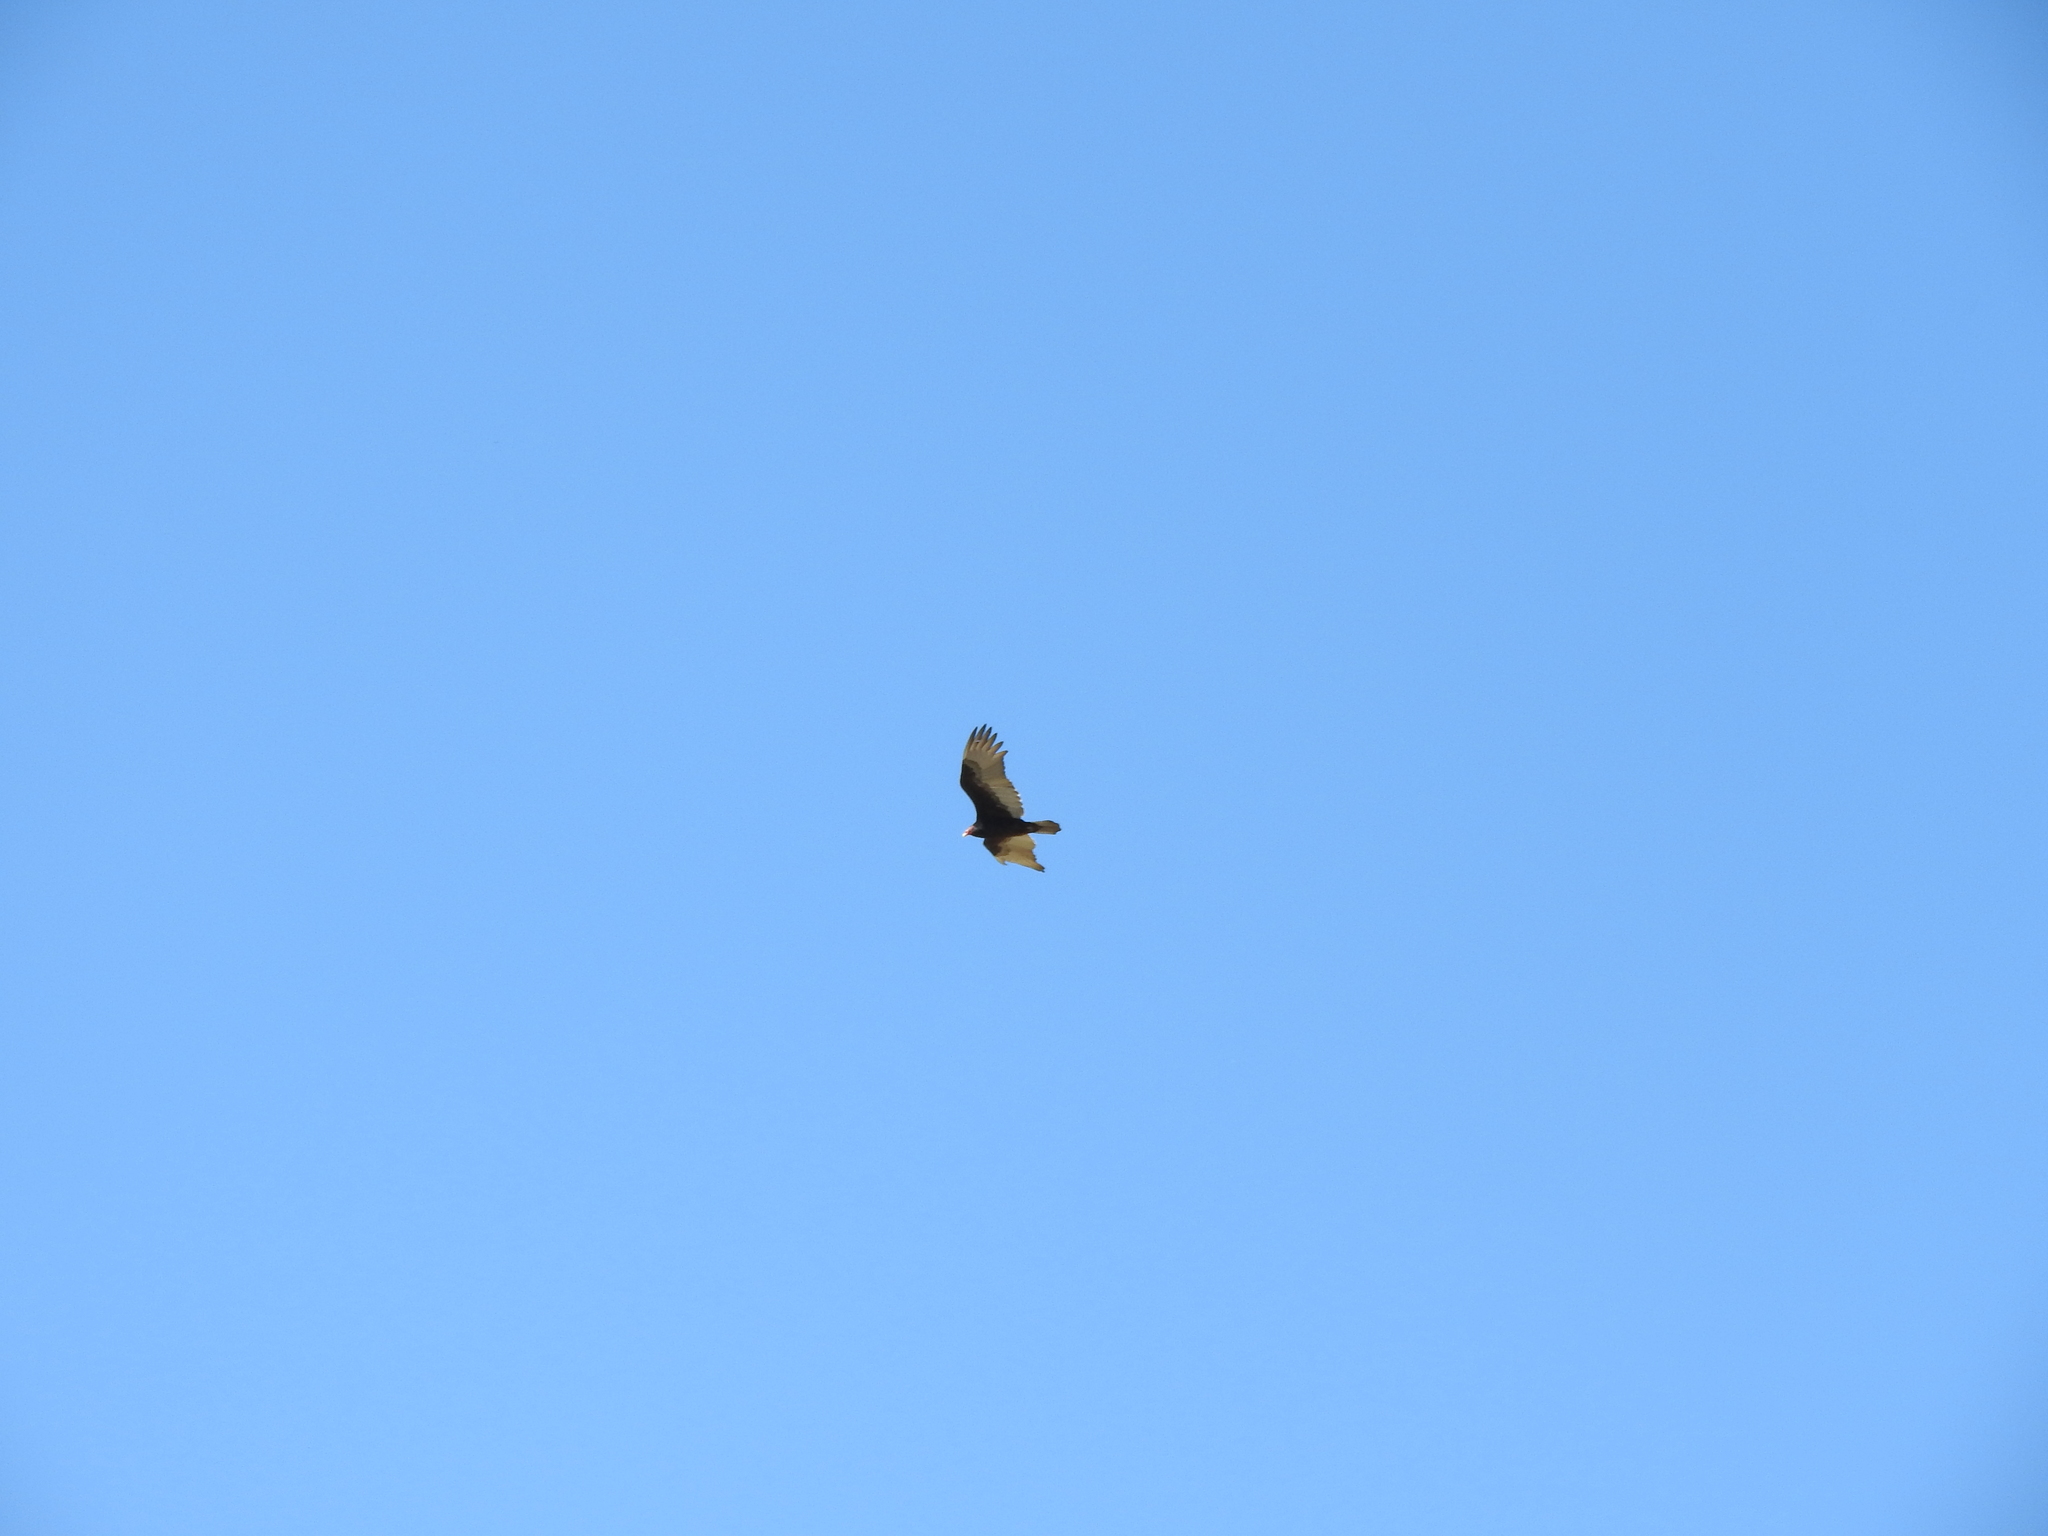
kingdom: Animalia
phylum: Chordata
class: Aves
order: Accipitriformes
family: Cathartidae
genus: Cathartes
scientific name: Cathartes aura
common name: Turkey vulture
